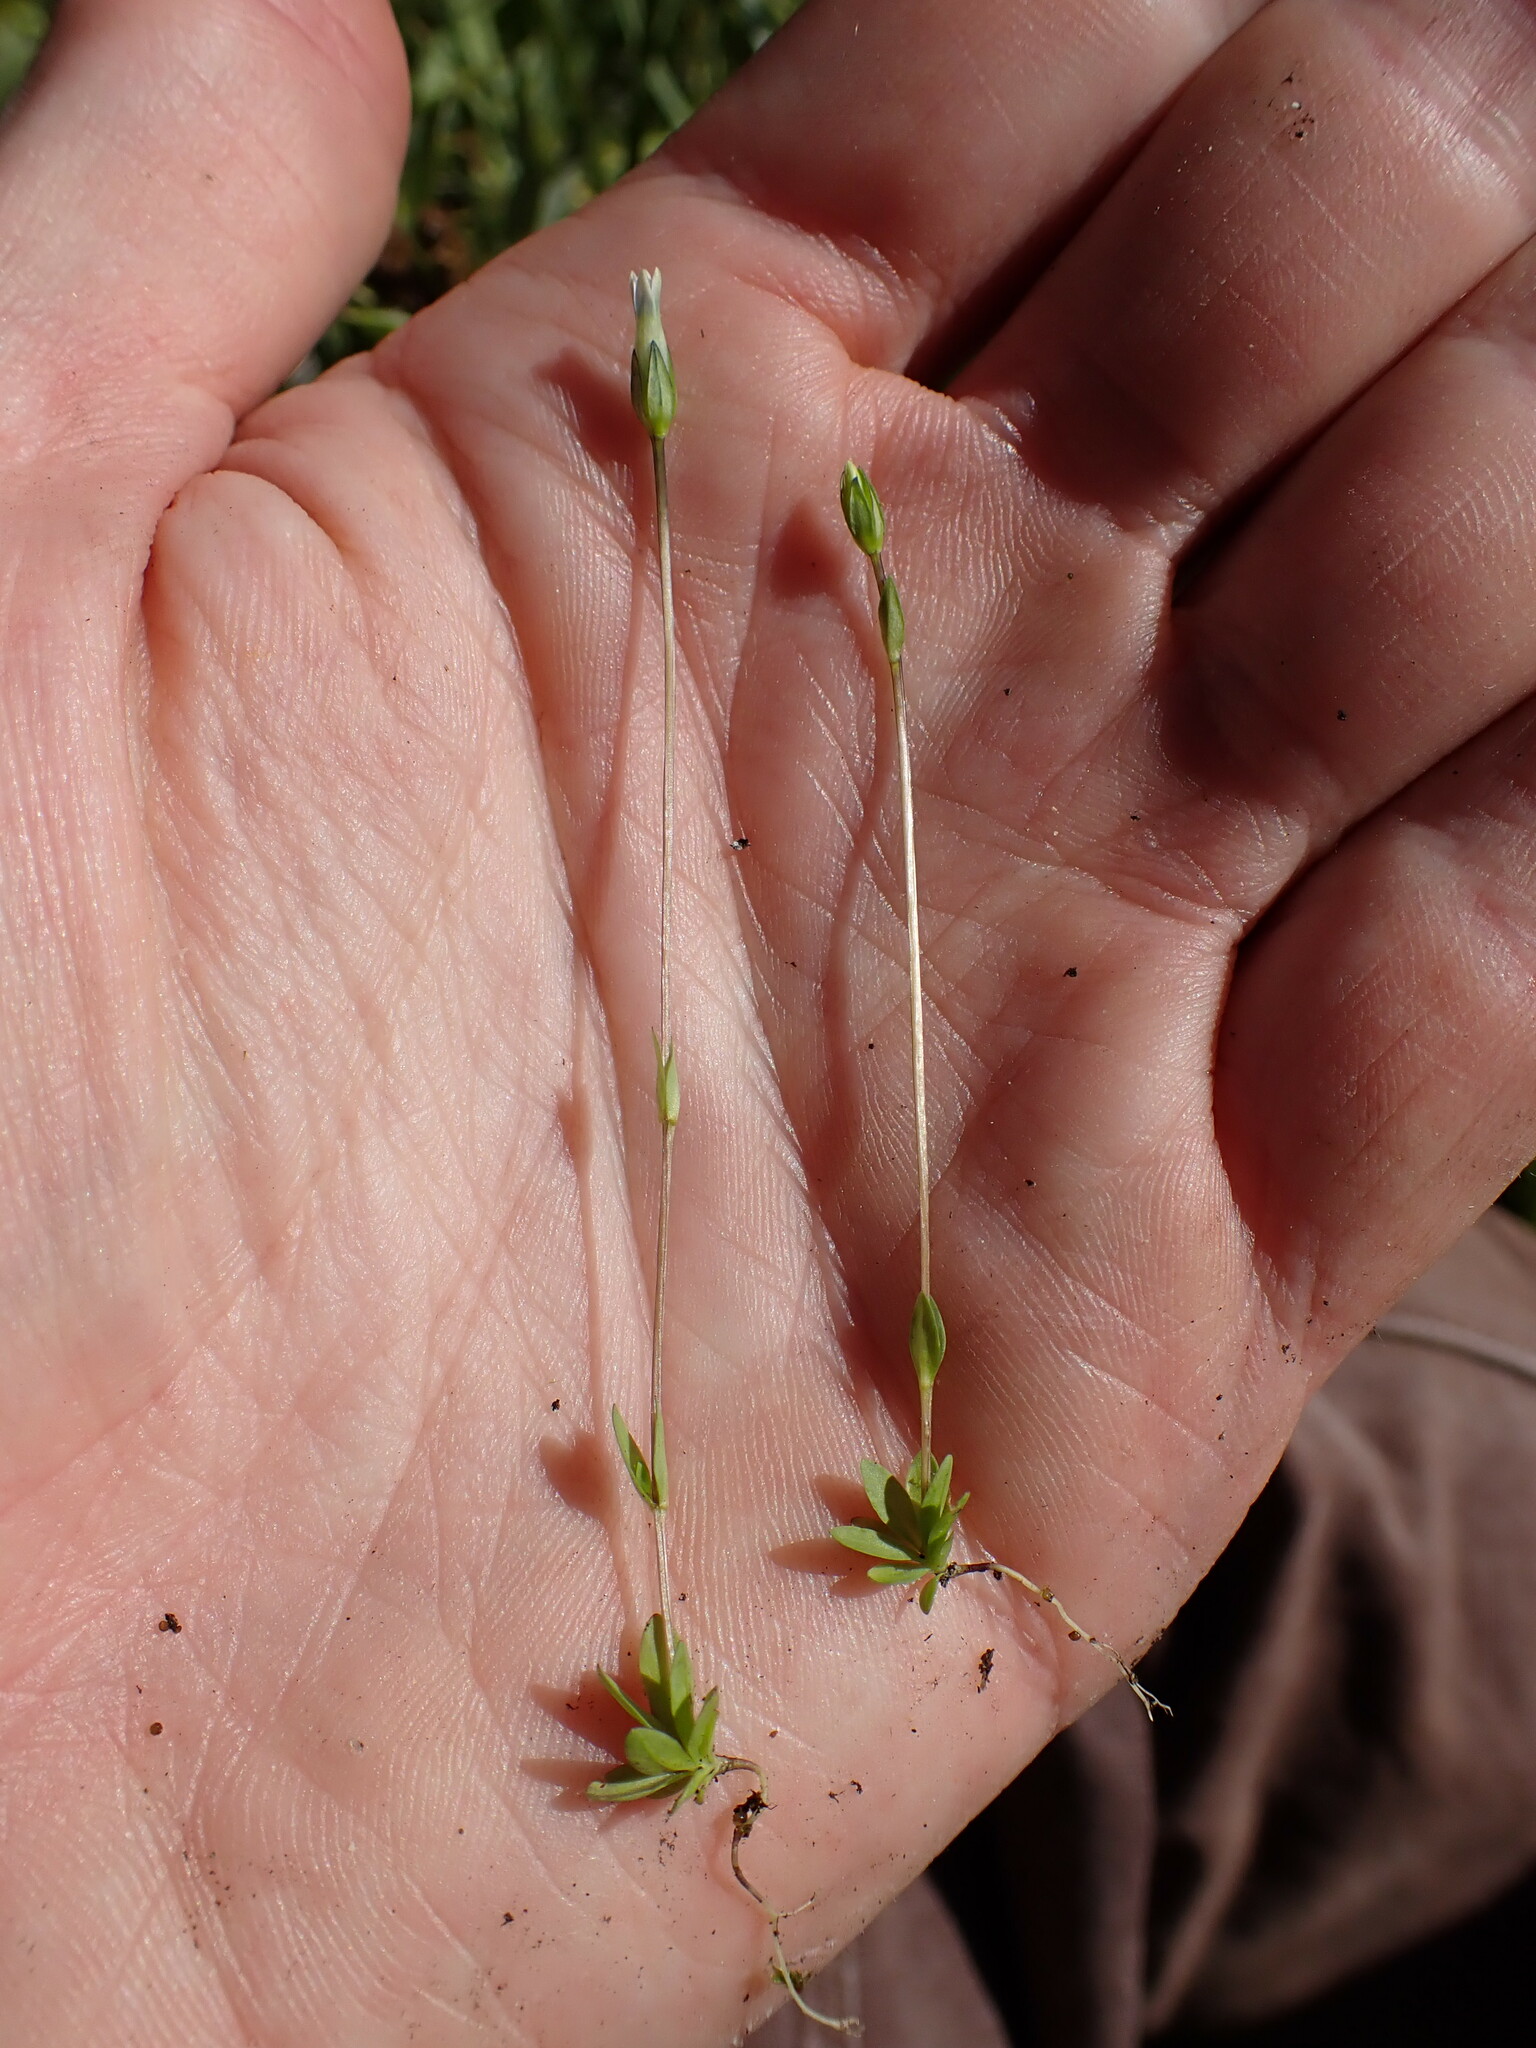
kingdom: Plantae
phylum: Tracheophyta
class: Magnoliopsida
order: Gentianales
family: Gentianaceae
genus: Comastoma
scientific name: Comastoma tenellum
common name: Dane's dwarf gentian
